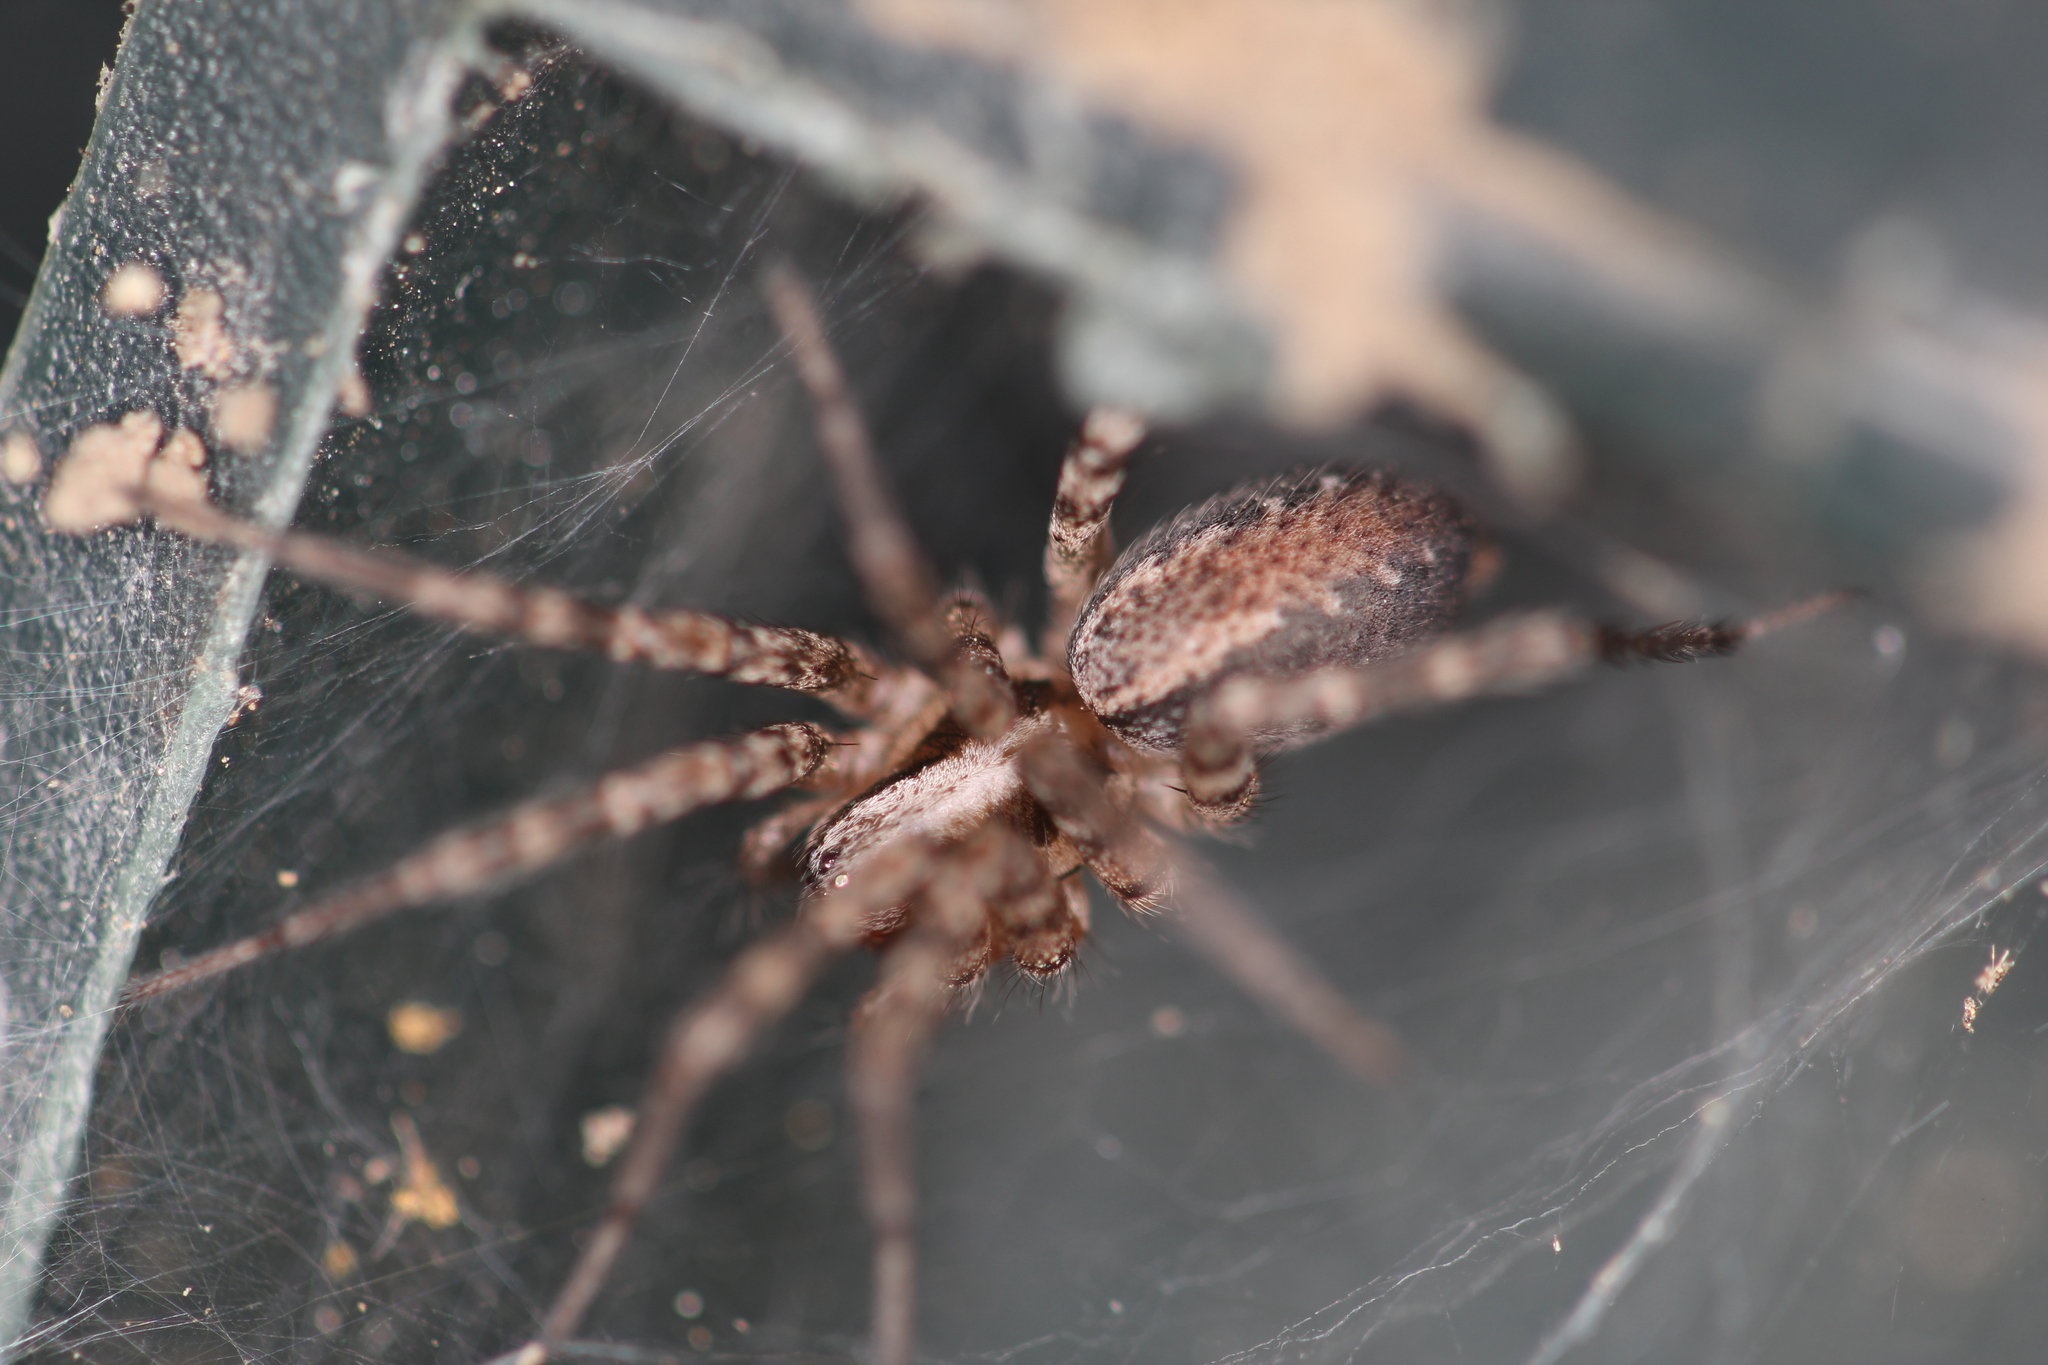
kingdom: Animalia
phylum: Arthropoda
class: Arachnida
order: Araneae
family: Agelenidae
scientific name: Agelenidae
